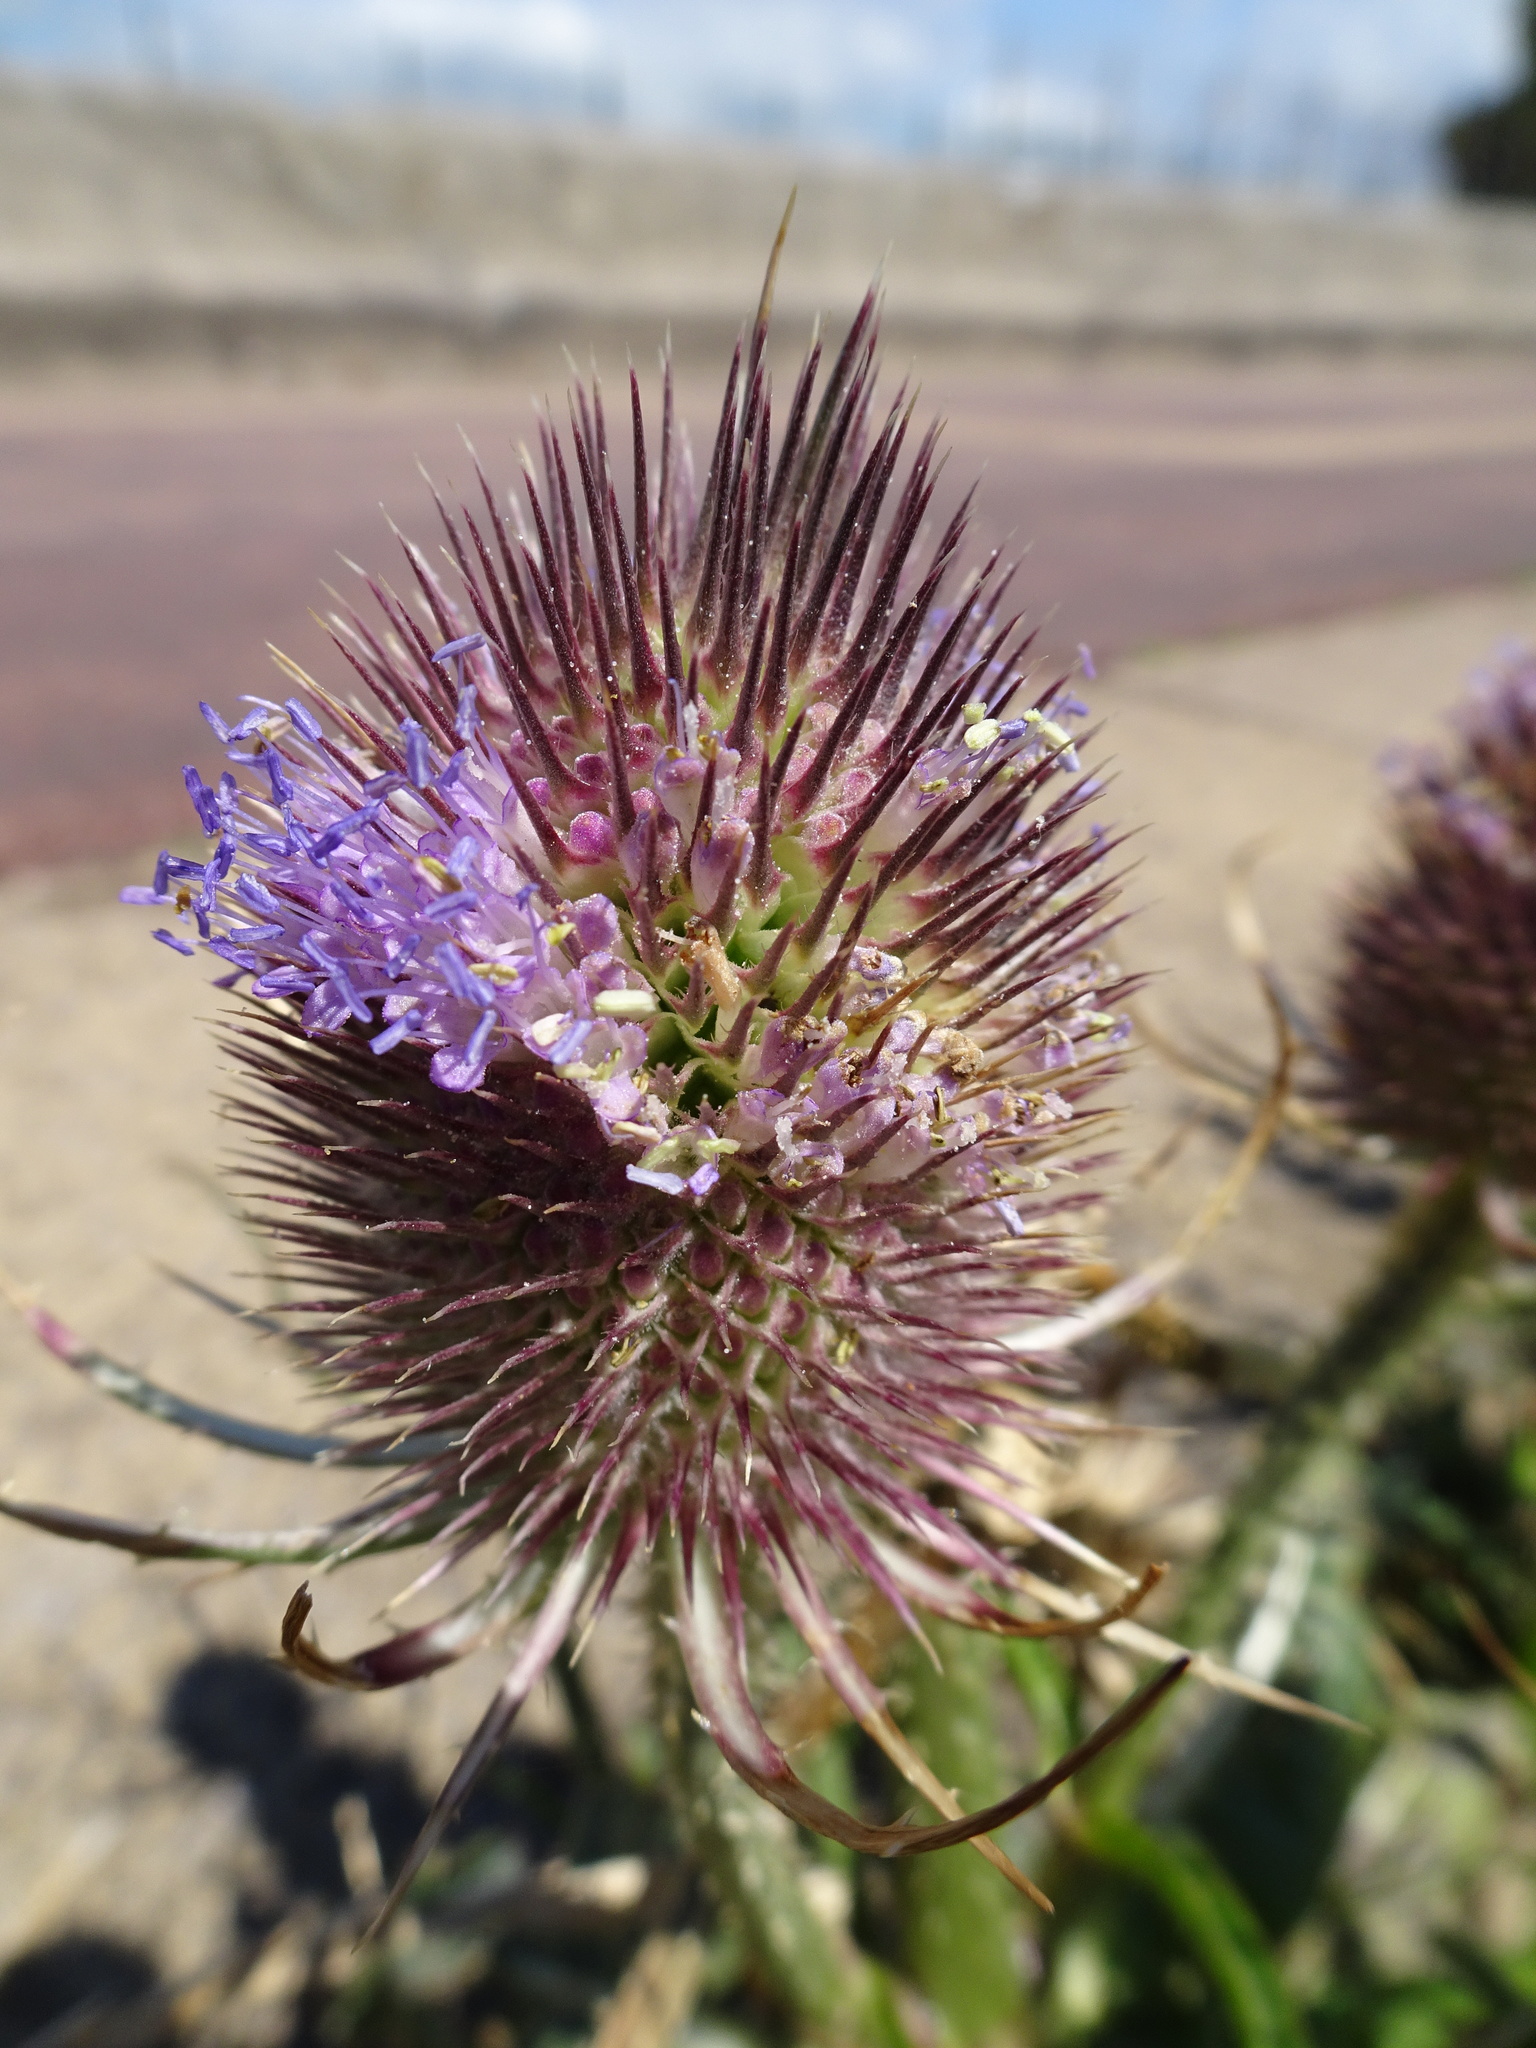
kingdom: Plantae
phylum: Tracheophyta
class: Magnoliopsida
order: Dipsacales
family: Caprifoliaceae
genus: Dipsacus
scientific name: Dipsacus fullonum
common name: Teasel
